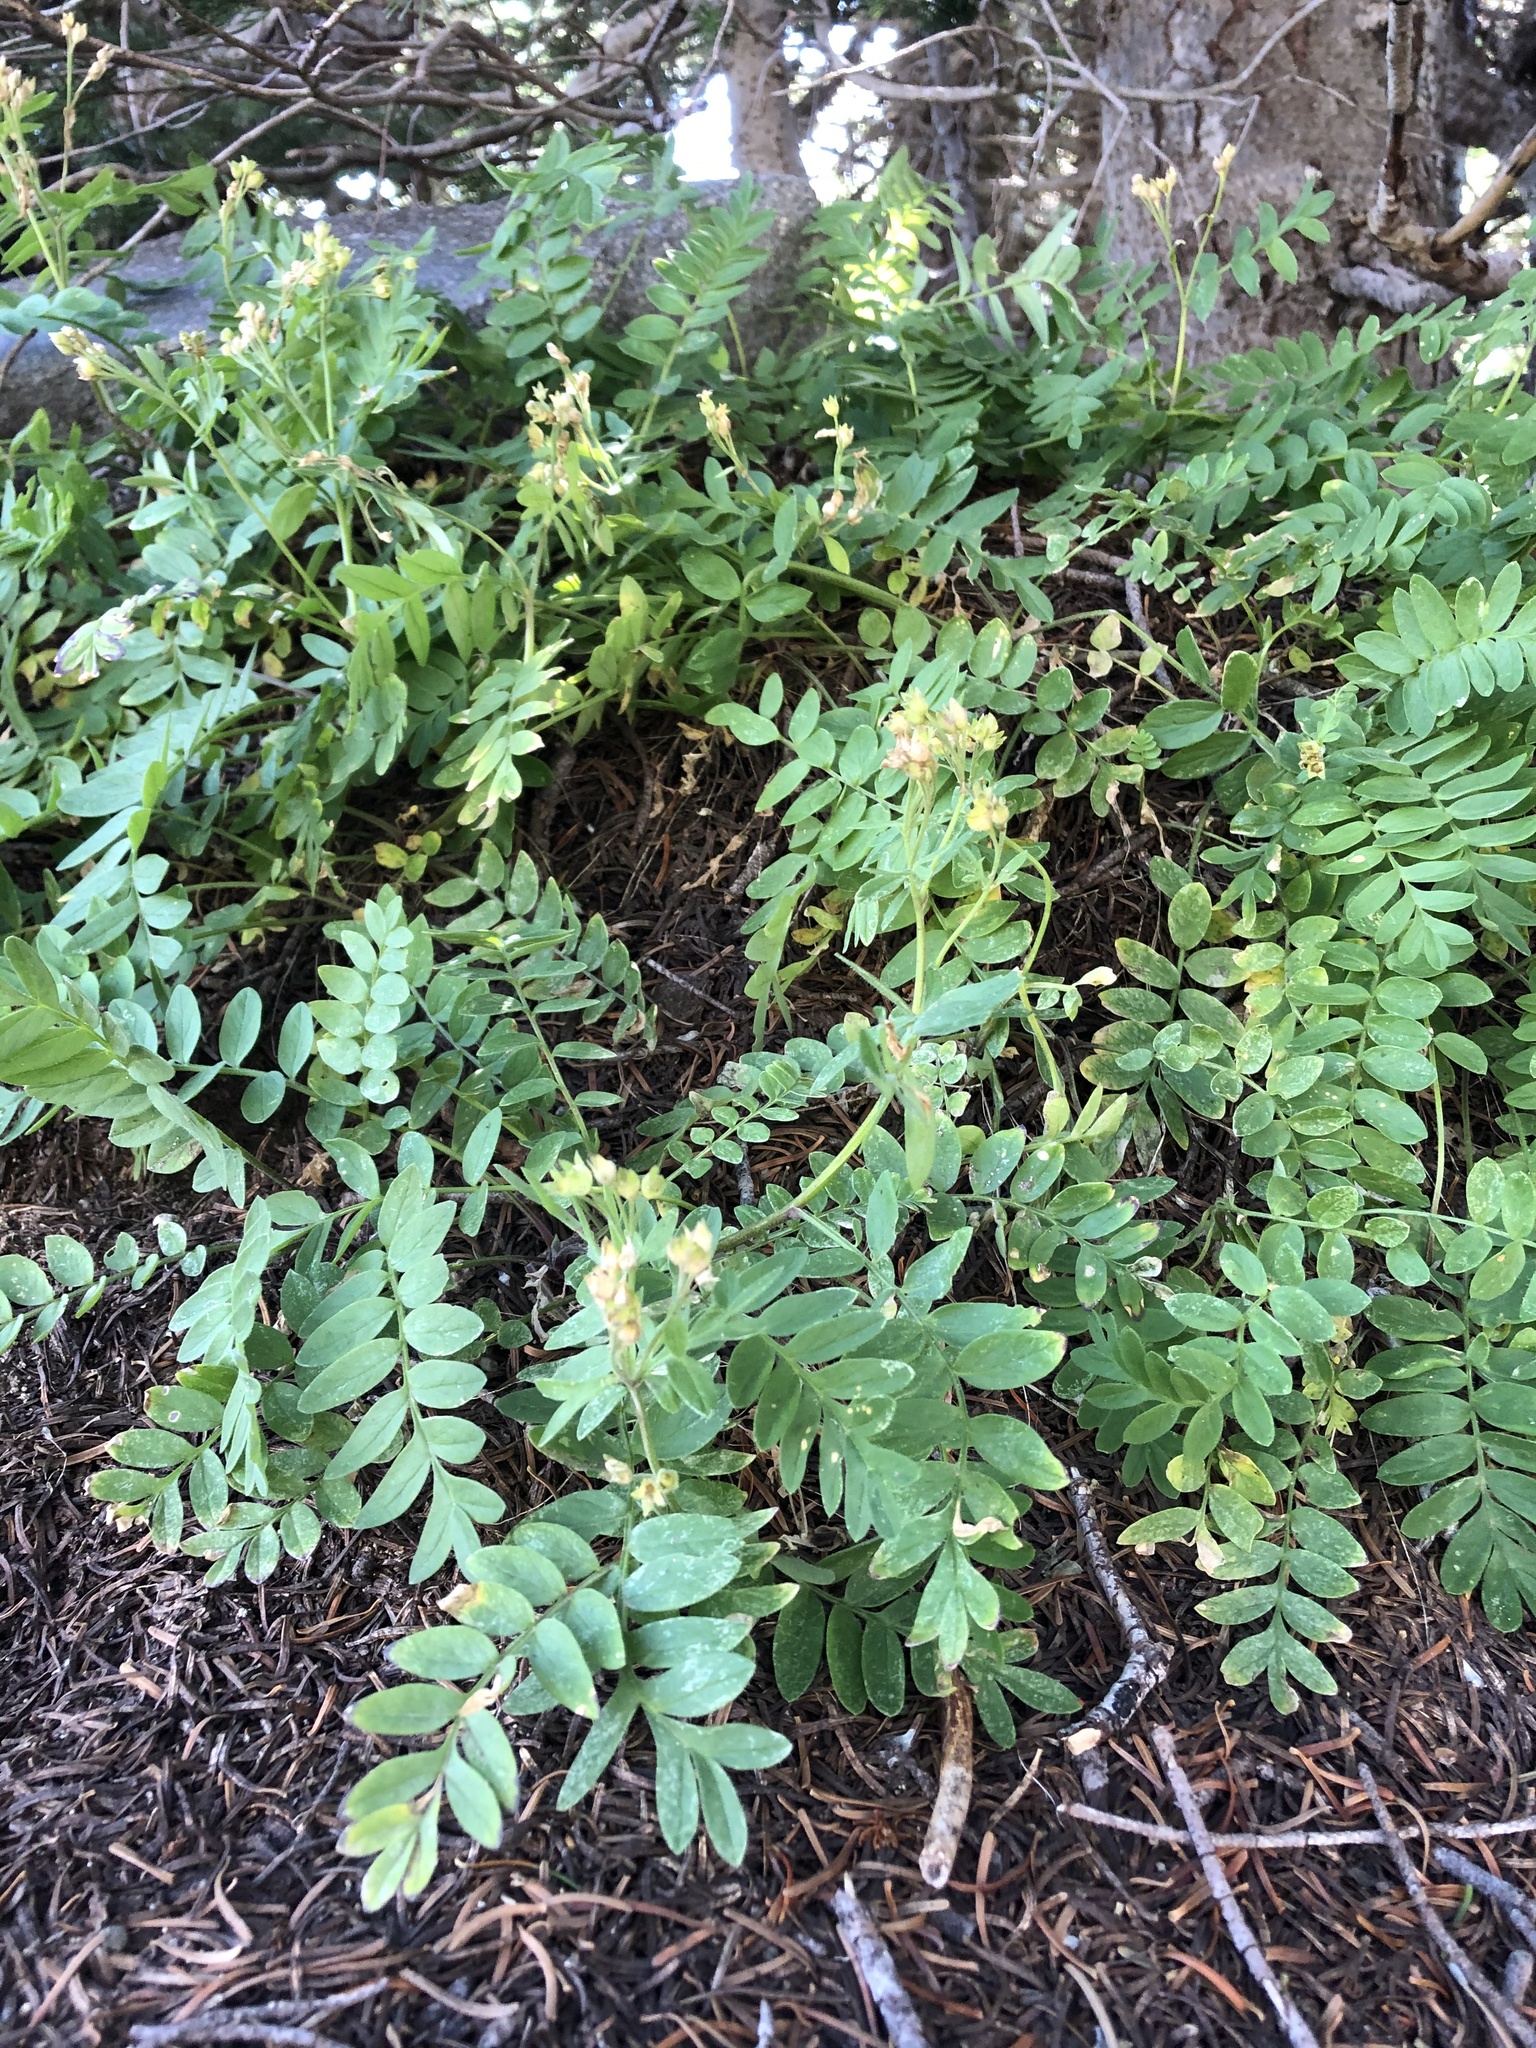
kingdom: Plantae
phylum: Tracheophyta
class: Magnoliopsida
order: Ericales
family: Polemoniaceae
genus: Polemonium
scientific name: Polemonium californicum
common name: California jacob's ladder
